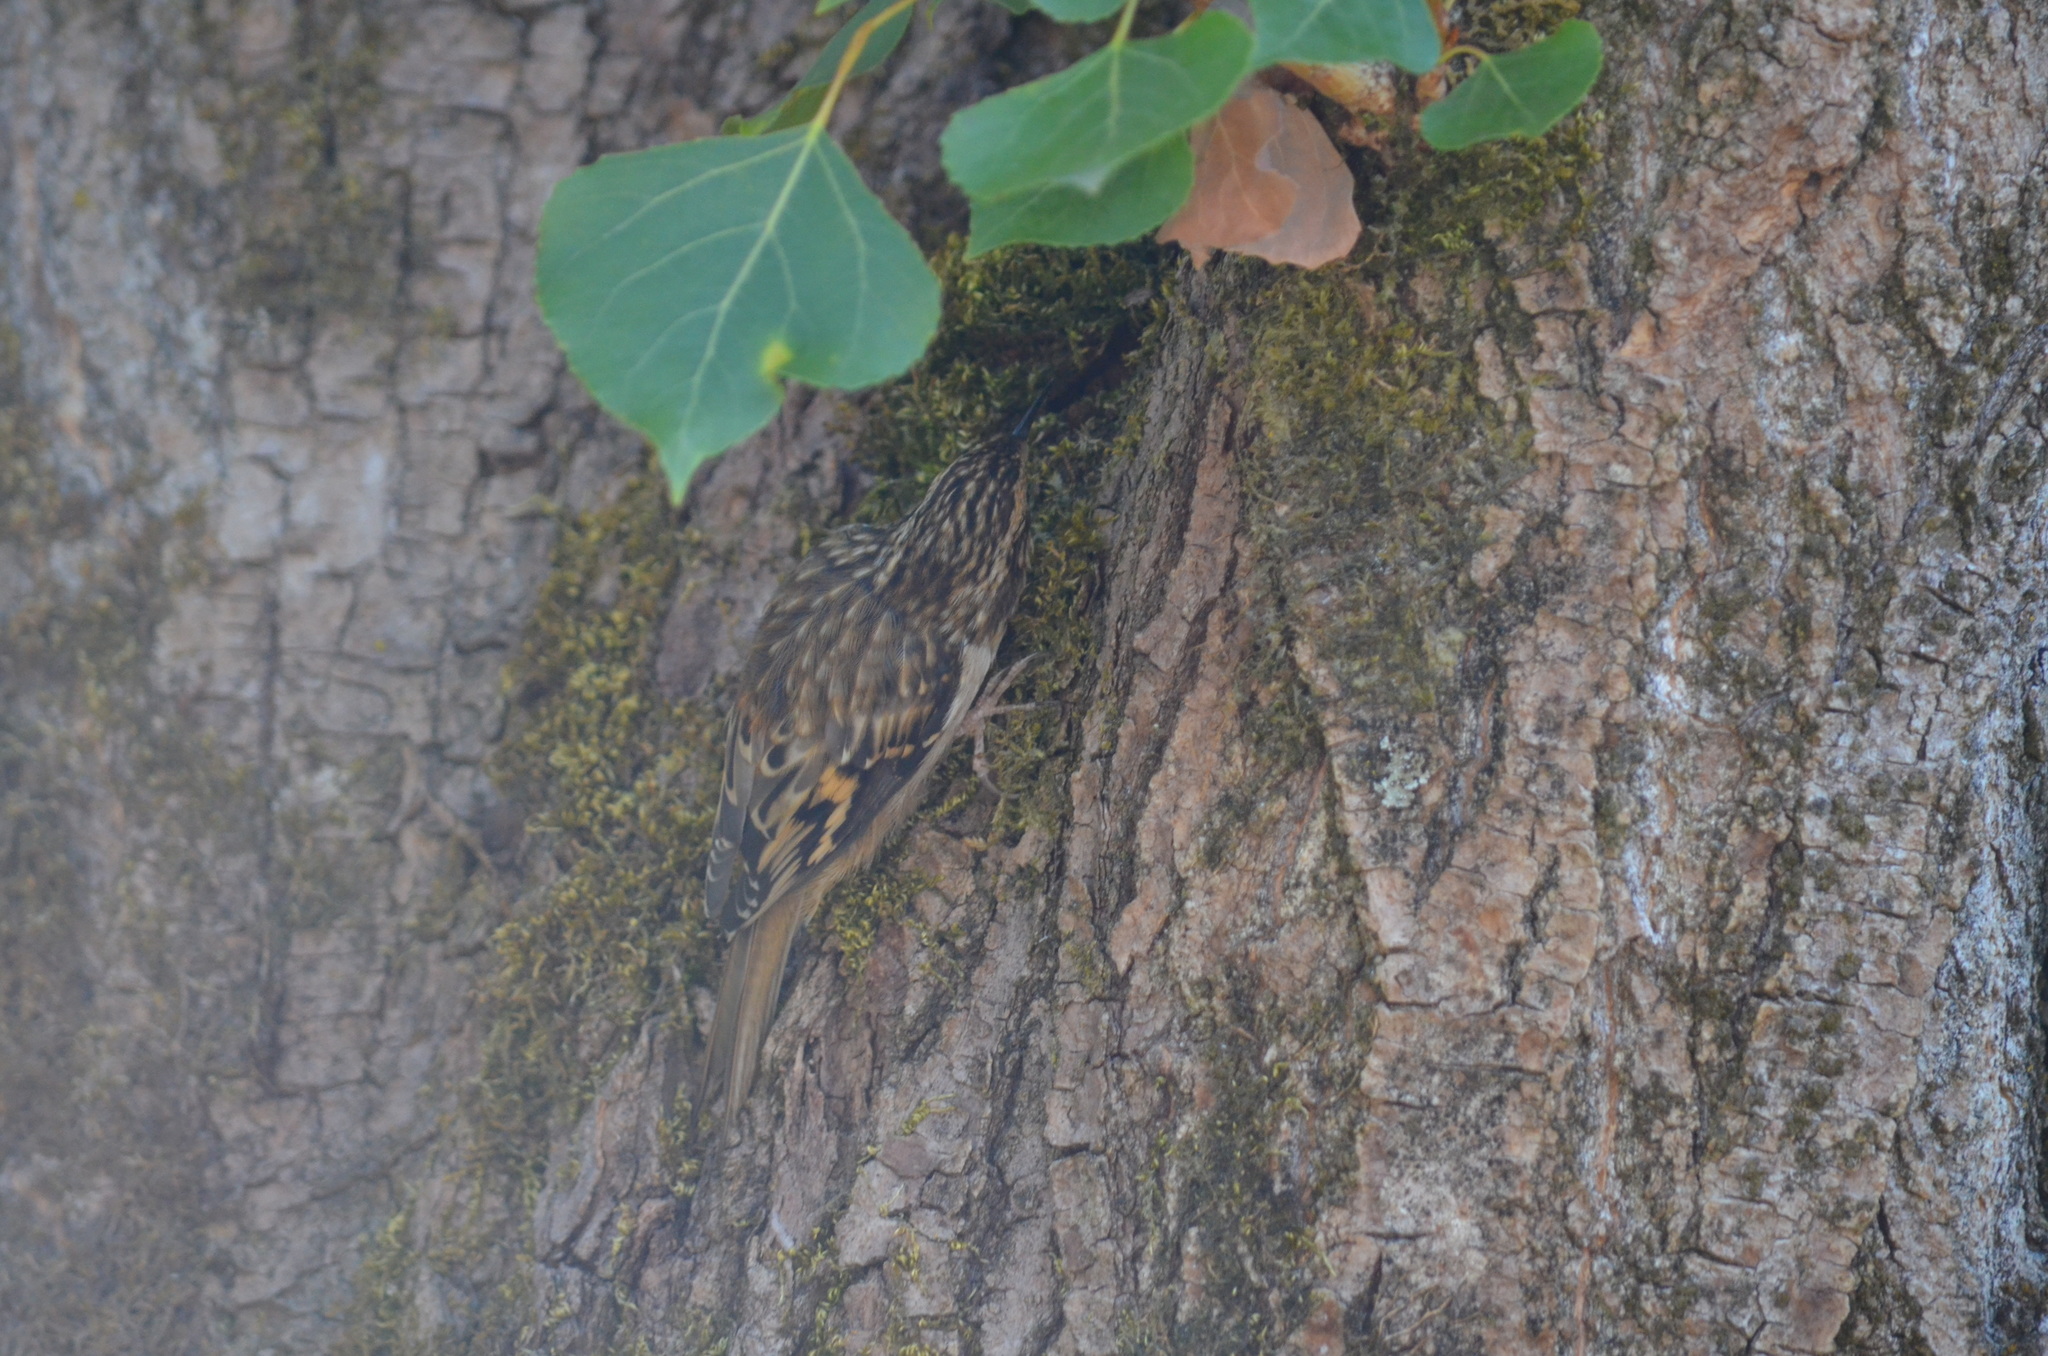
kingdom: Animalia
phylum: Chordata
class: Aves
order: Passeriformes
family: Certhiidae
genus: Certhia
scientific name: Certhia americana
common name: Brown creeper
